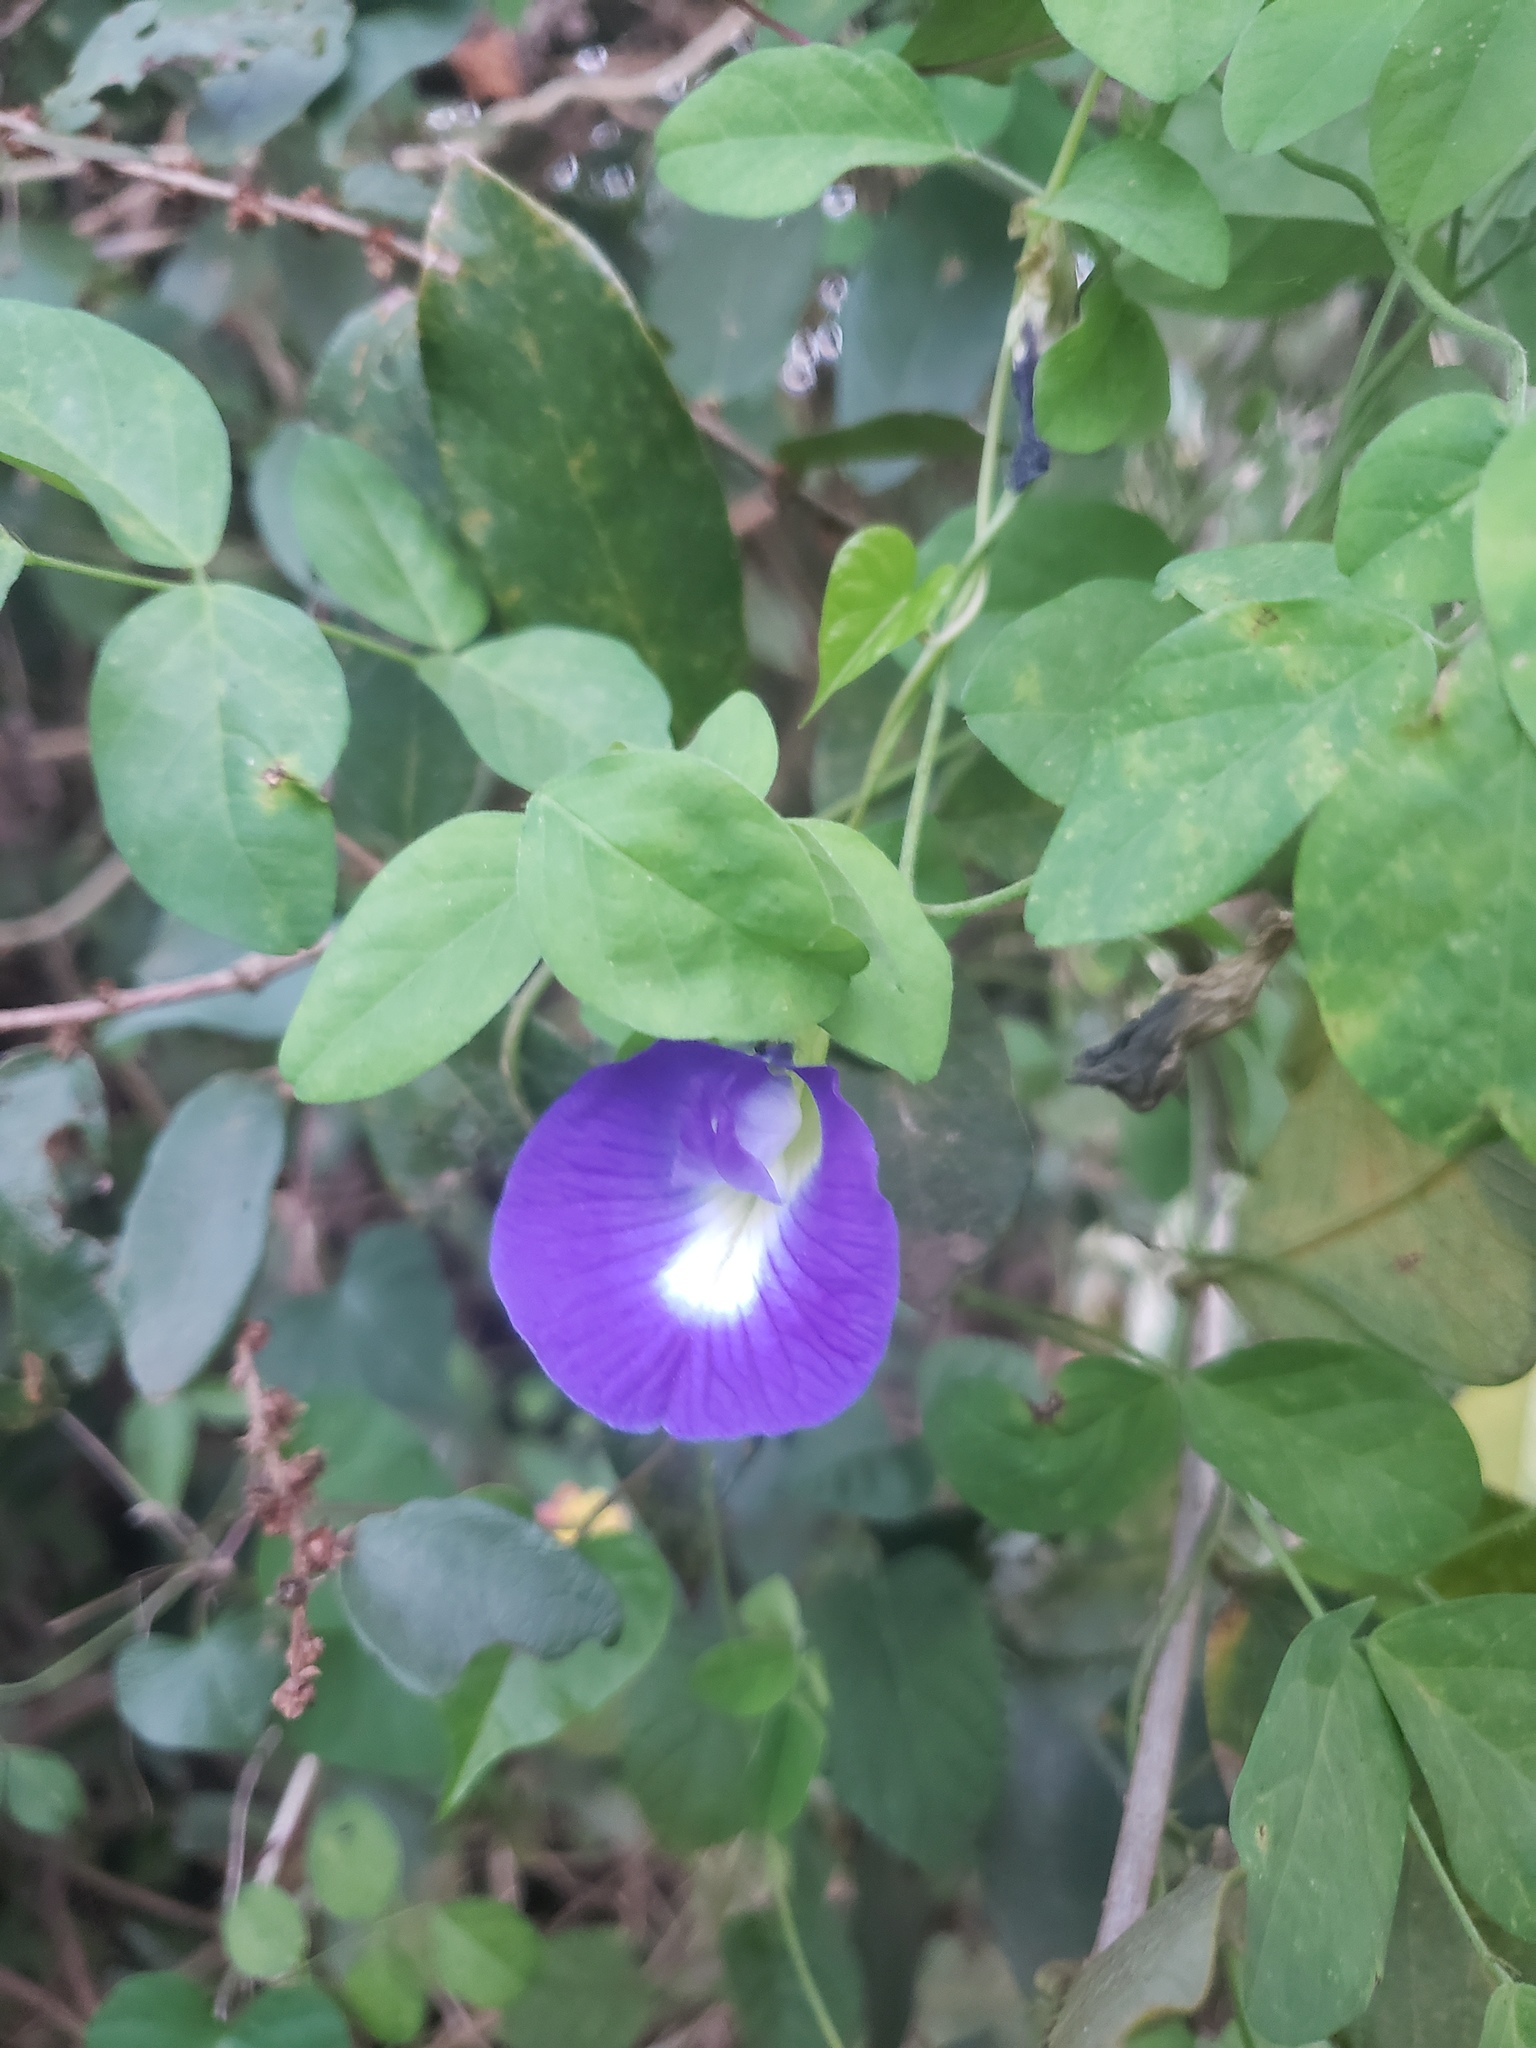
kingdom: Plantae
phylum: Tracheophyta
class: Magnoliopsida
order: Fabales
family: Fabaceae
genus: Clitoria
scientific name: Clitoria ternatea
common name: Asian pigeonwings
